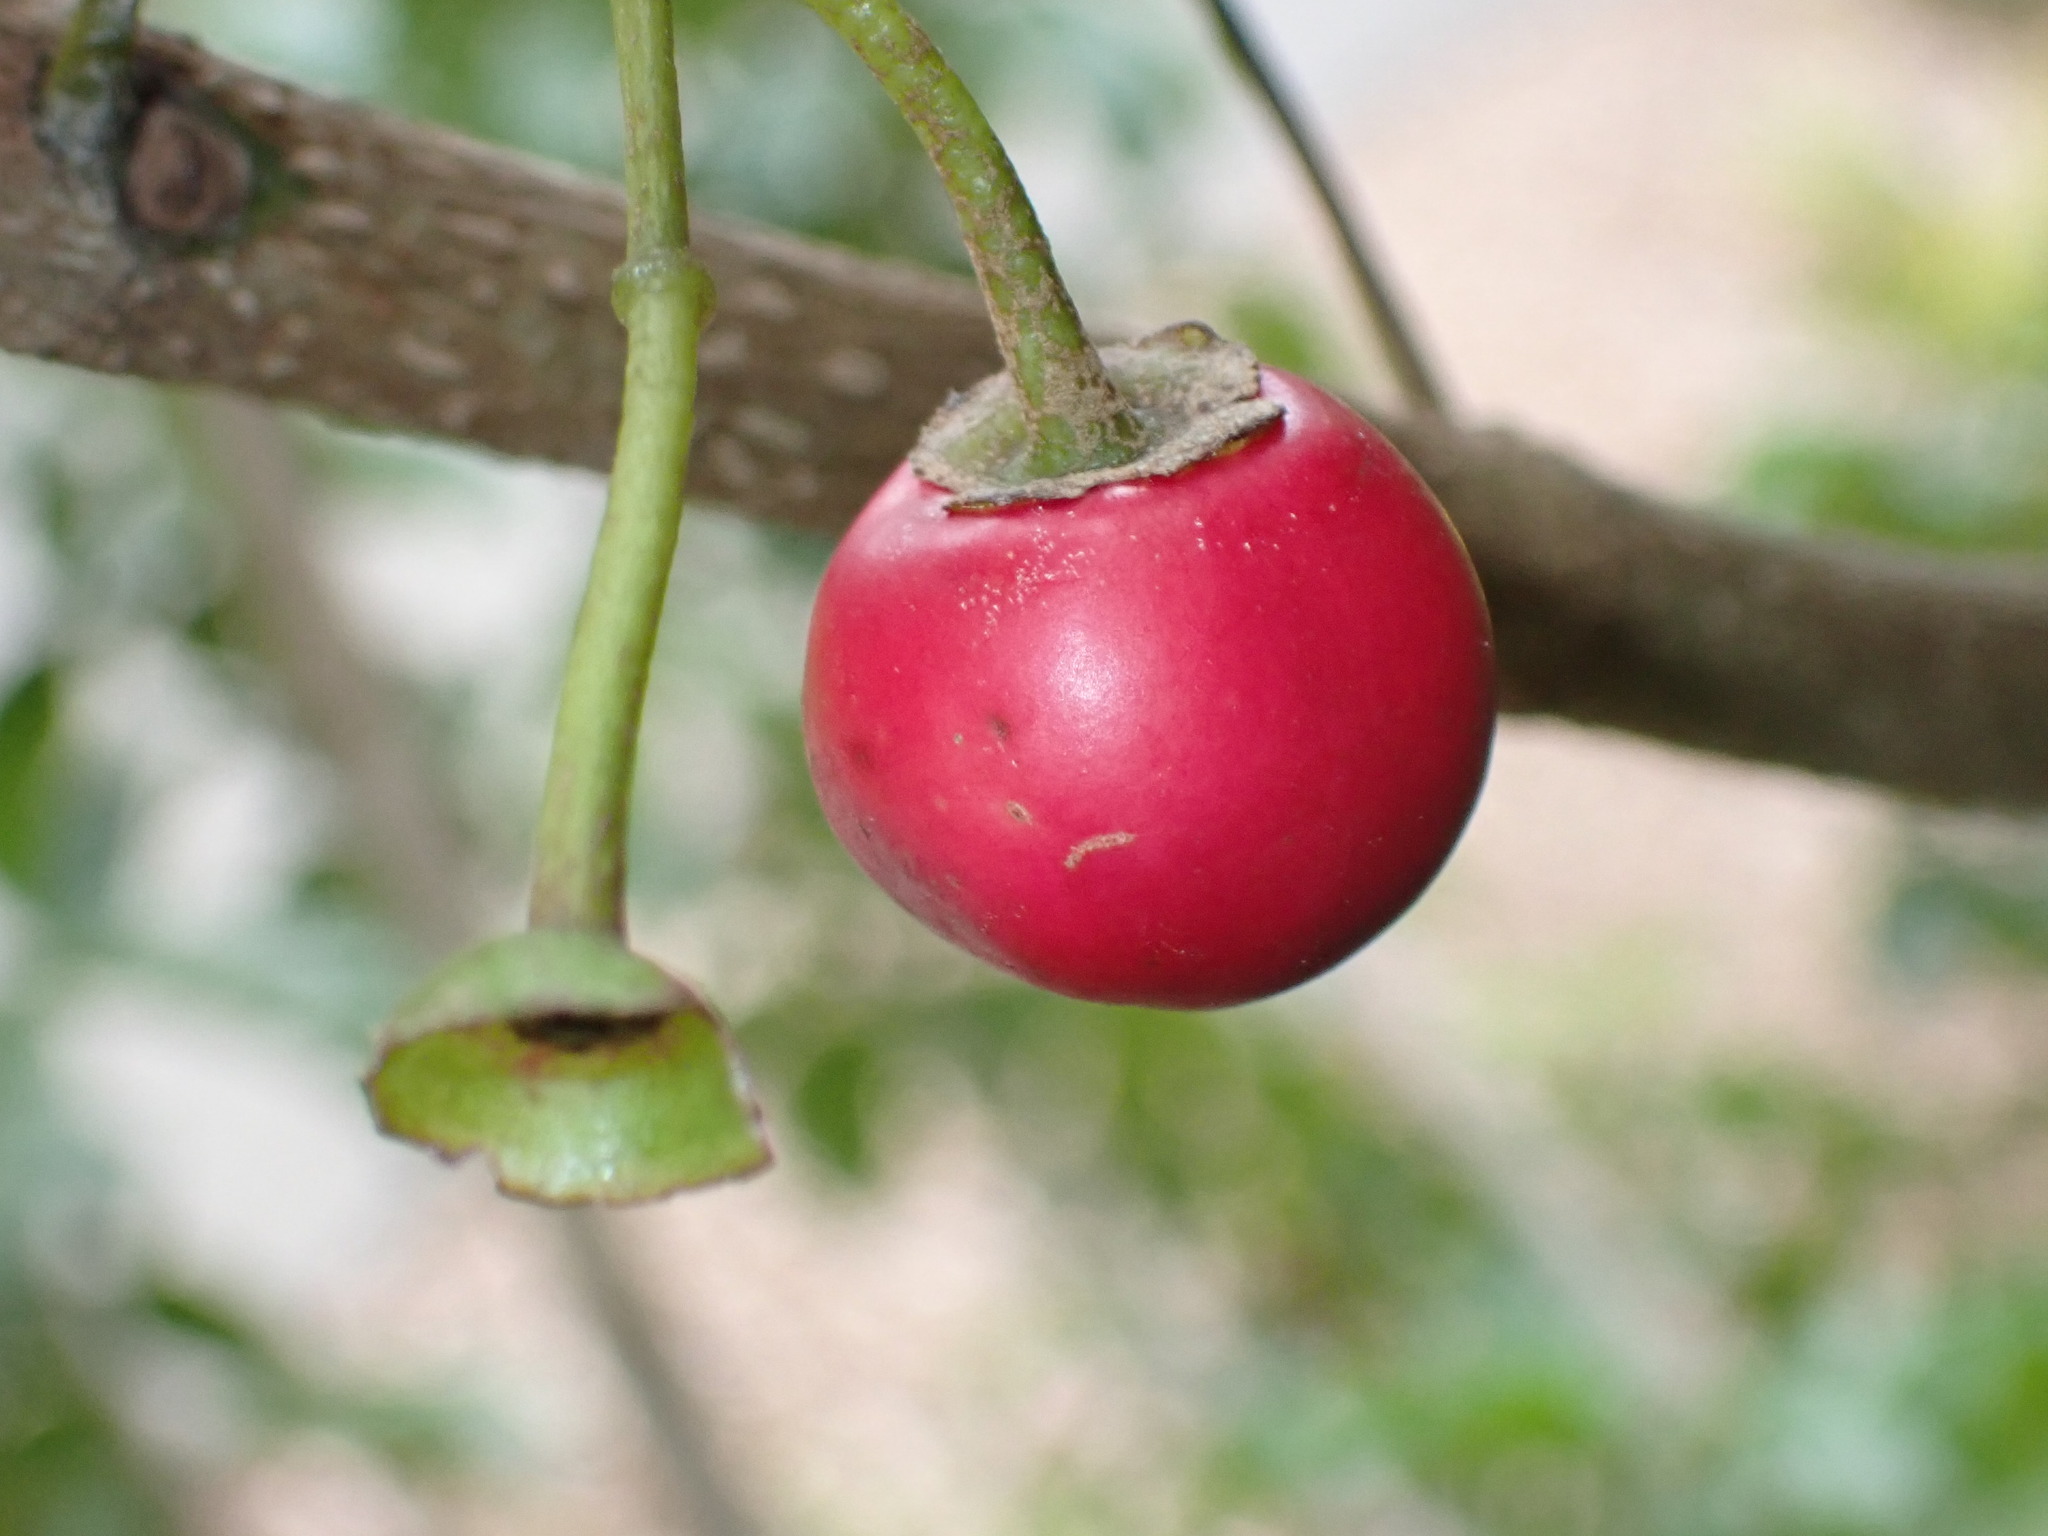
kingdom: Plantae
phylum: Tracheophyta
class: Magnoliopsida
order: Lamiales
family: Lamiaceae
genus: Vitex
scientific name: Vitex lucens
